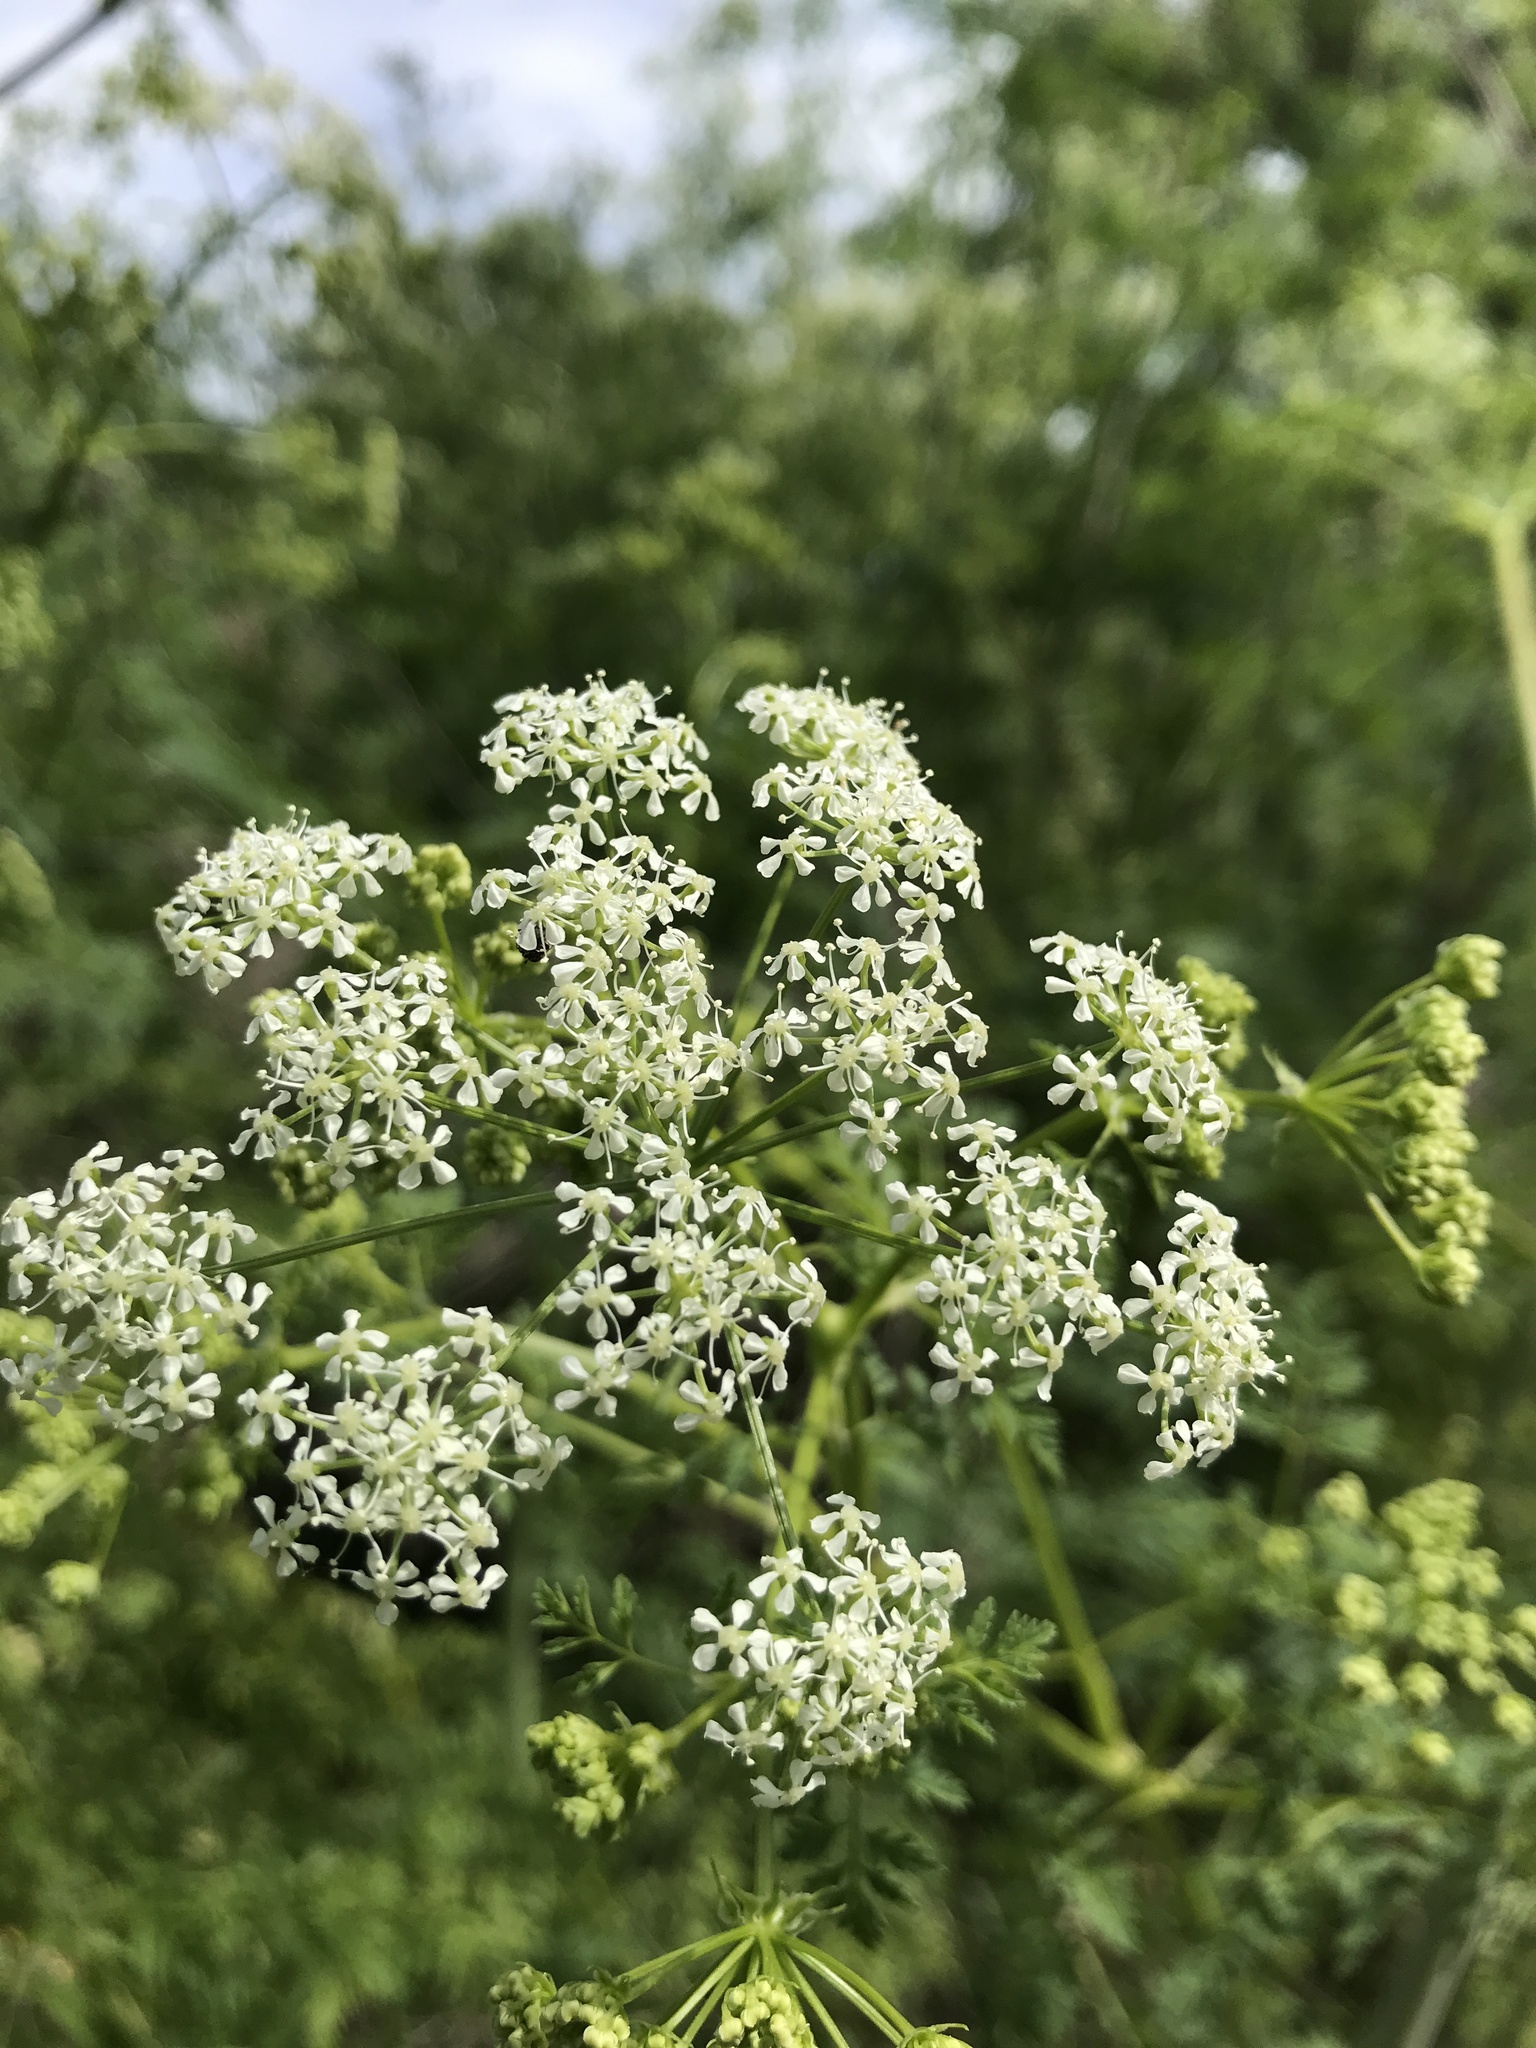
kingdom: Plantae
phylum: Tracheophyta
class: Magnoliopsida
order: Apiales
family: Apiaceae
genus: Conium
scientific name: Conium maculatum
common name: Hemlock
